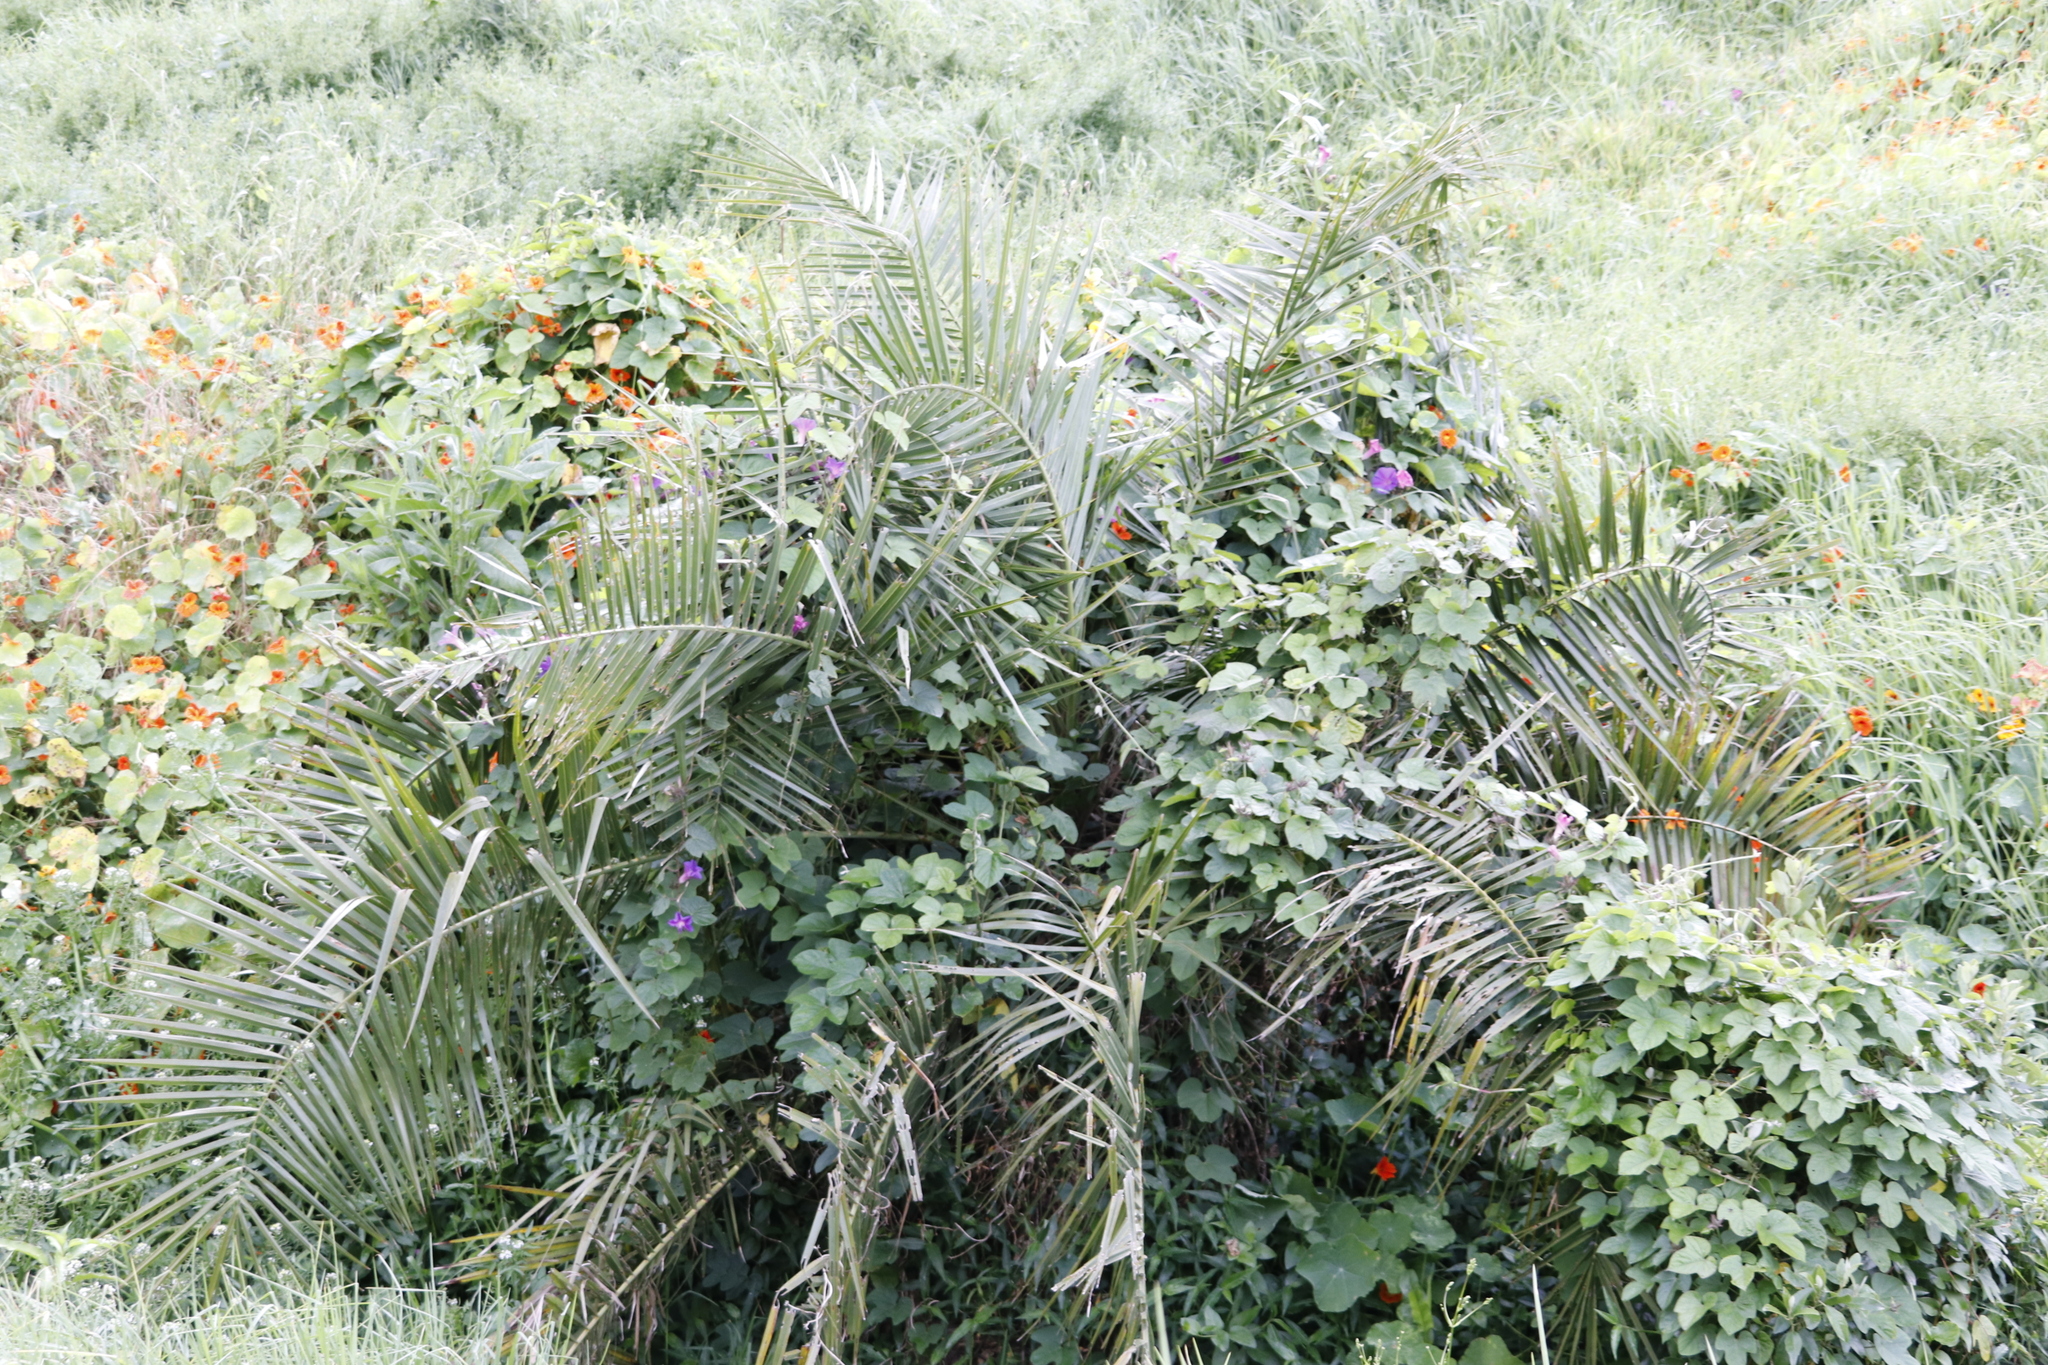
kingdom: Plantae
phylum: Tracheophyta
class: Liliopsida
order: Arecales
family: Arecaceae
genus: Phoenix
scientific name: Phoenix reclinata
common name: Senegal date palm
